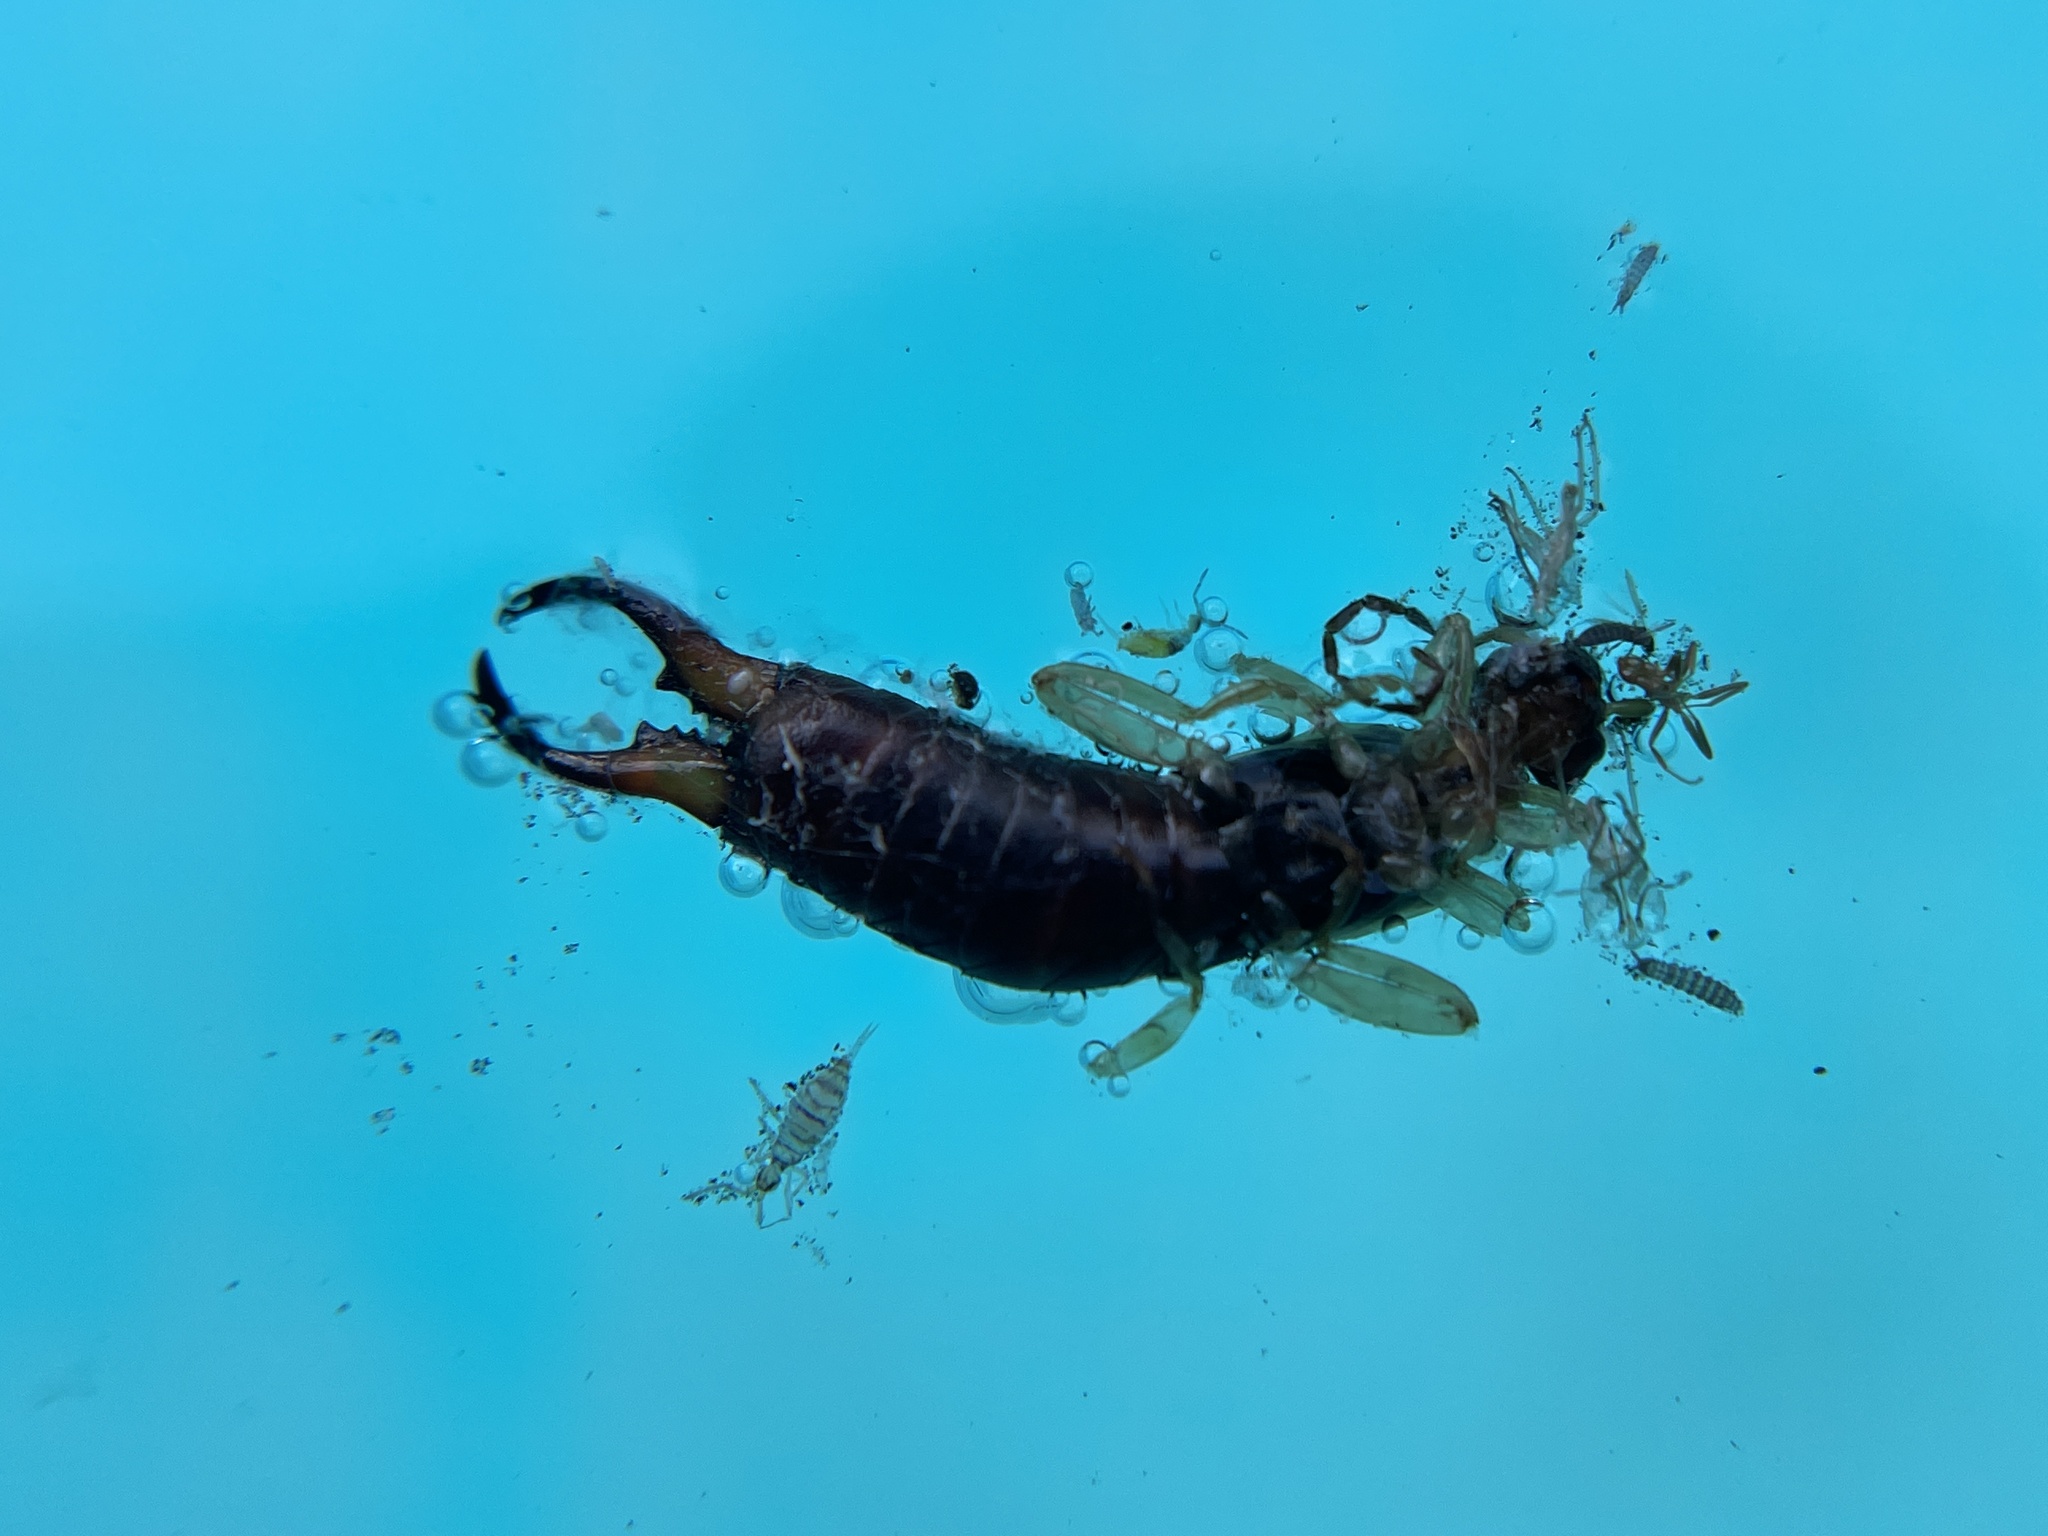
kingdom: Animalia
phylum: Arthropoda
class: Insecta
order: Dermaptera
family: Forficulidae
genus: Forficula
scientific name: Forficula
